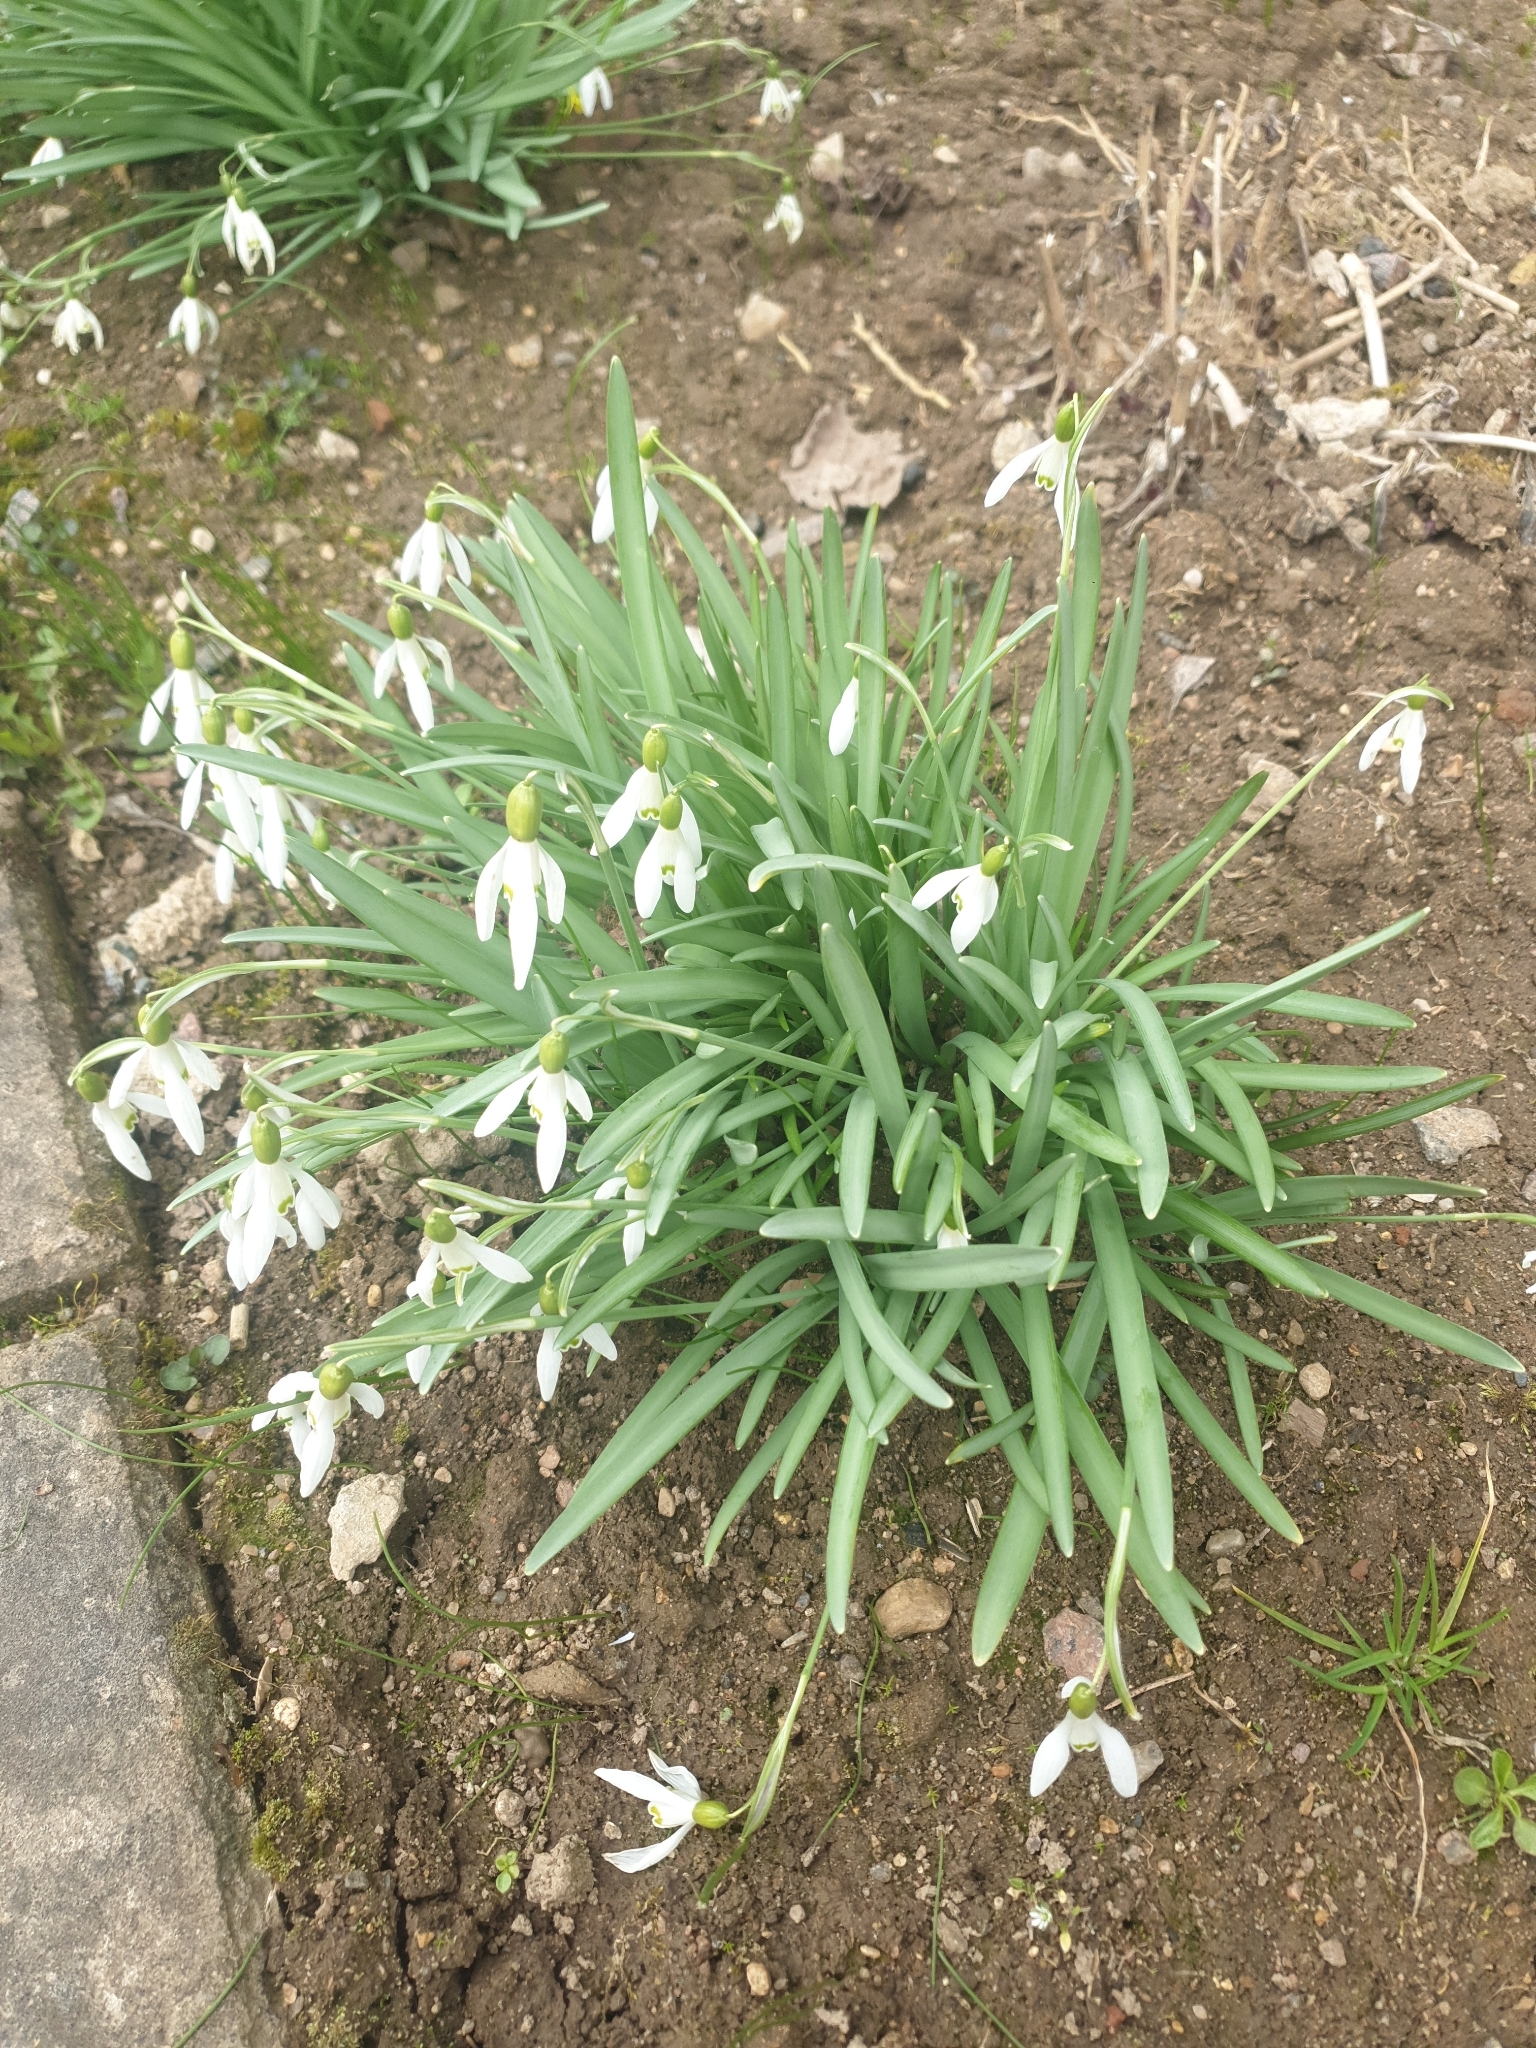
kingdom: Plantae
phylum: Tracheophyta
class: Liliopsida
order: Asparagales
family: Amaryllidaceae
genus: Galanthus
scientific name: Galanthus nivalis
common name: Snowdrop
